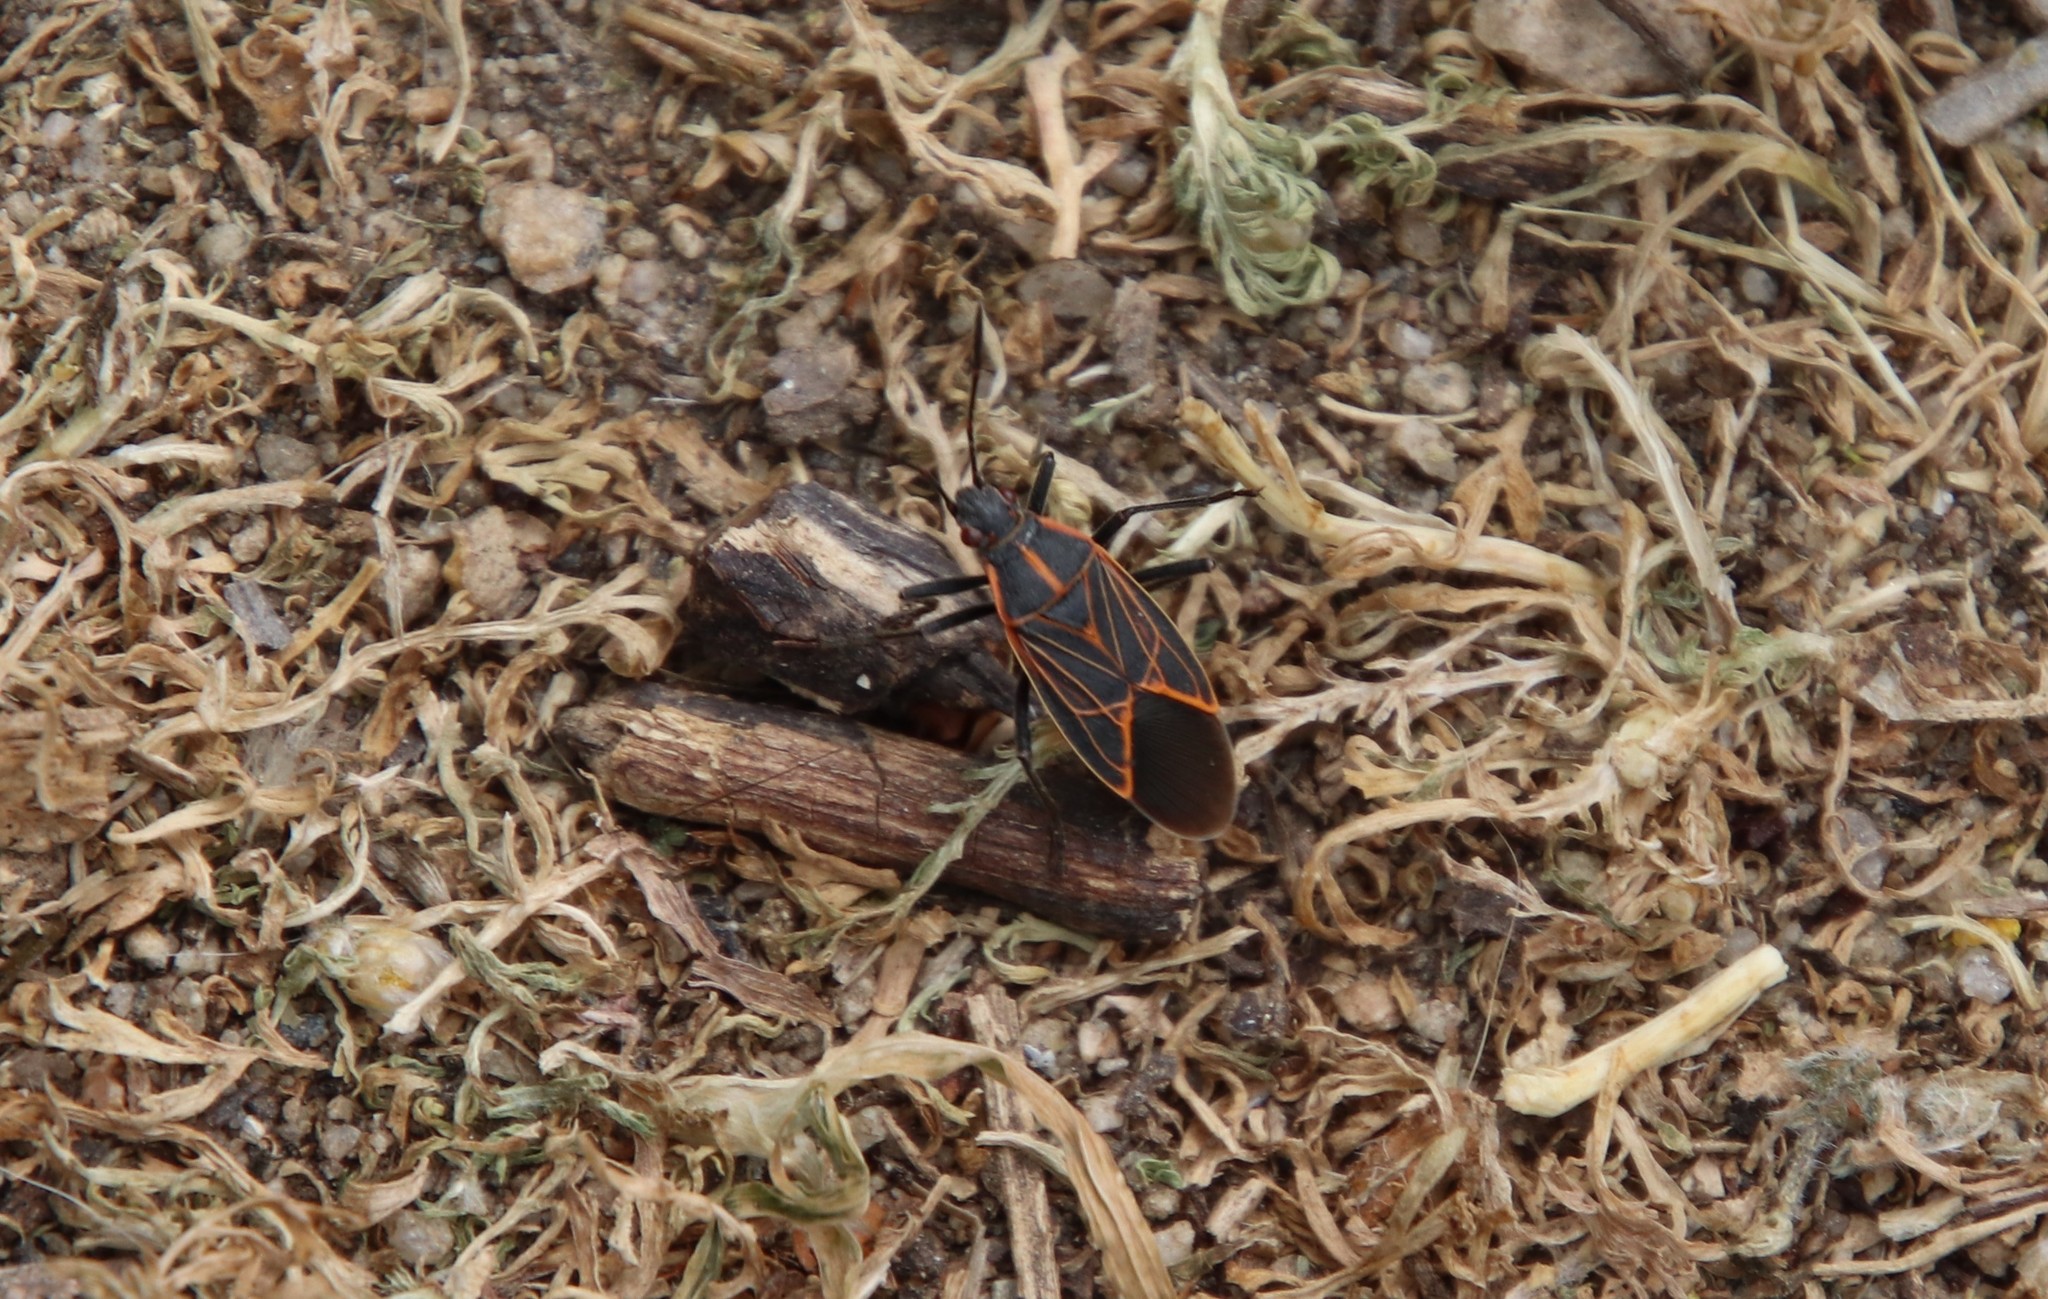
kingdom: Animalia
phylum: Arthropoda
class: Insecta
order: Hemiptera
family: Rhopalidae
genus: Boisea
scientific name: Boisea rubrolineata
